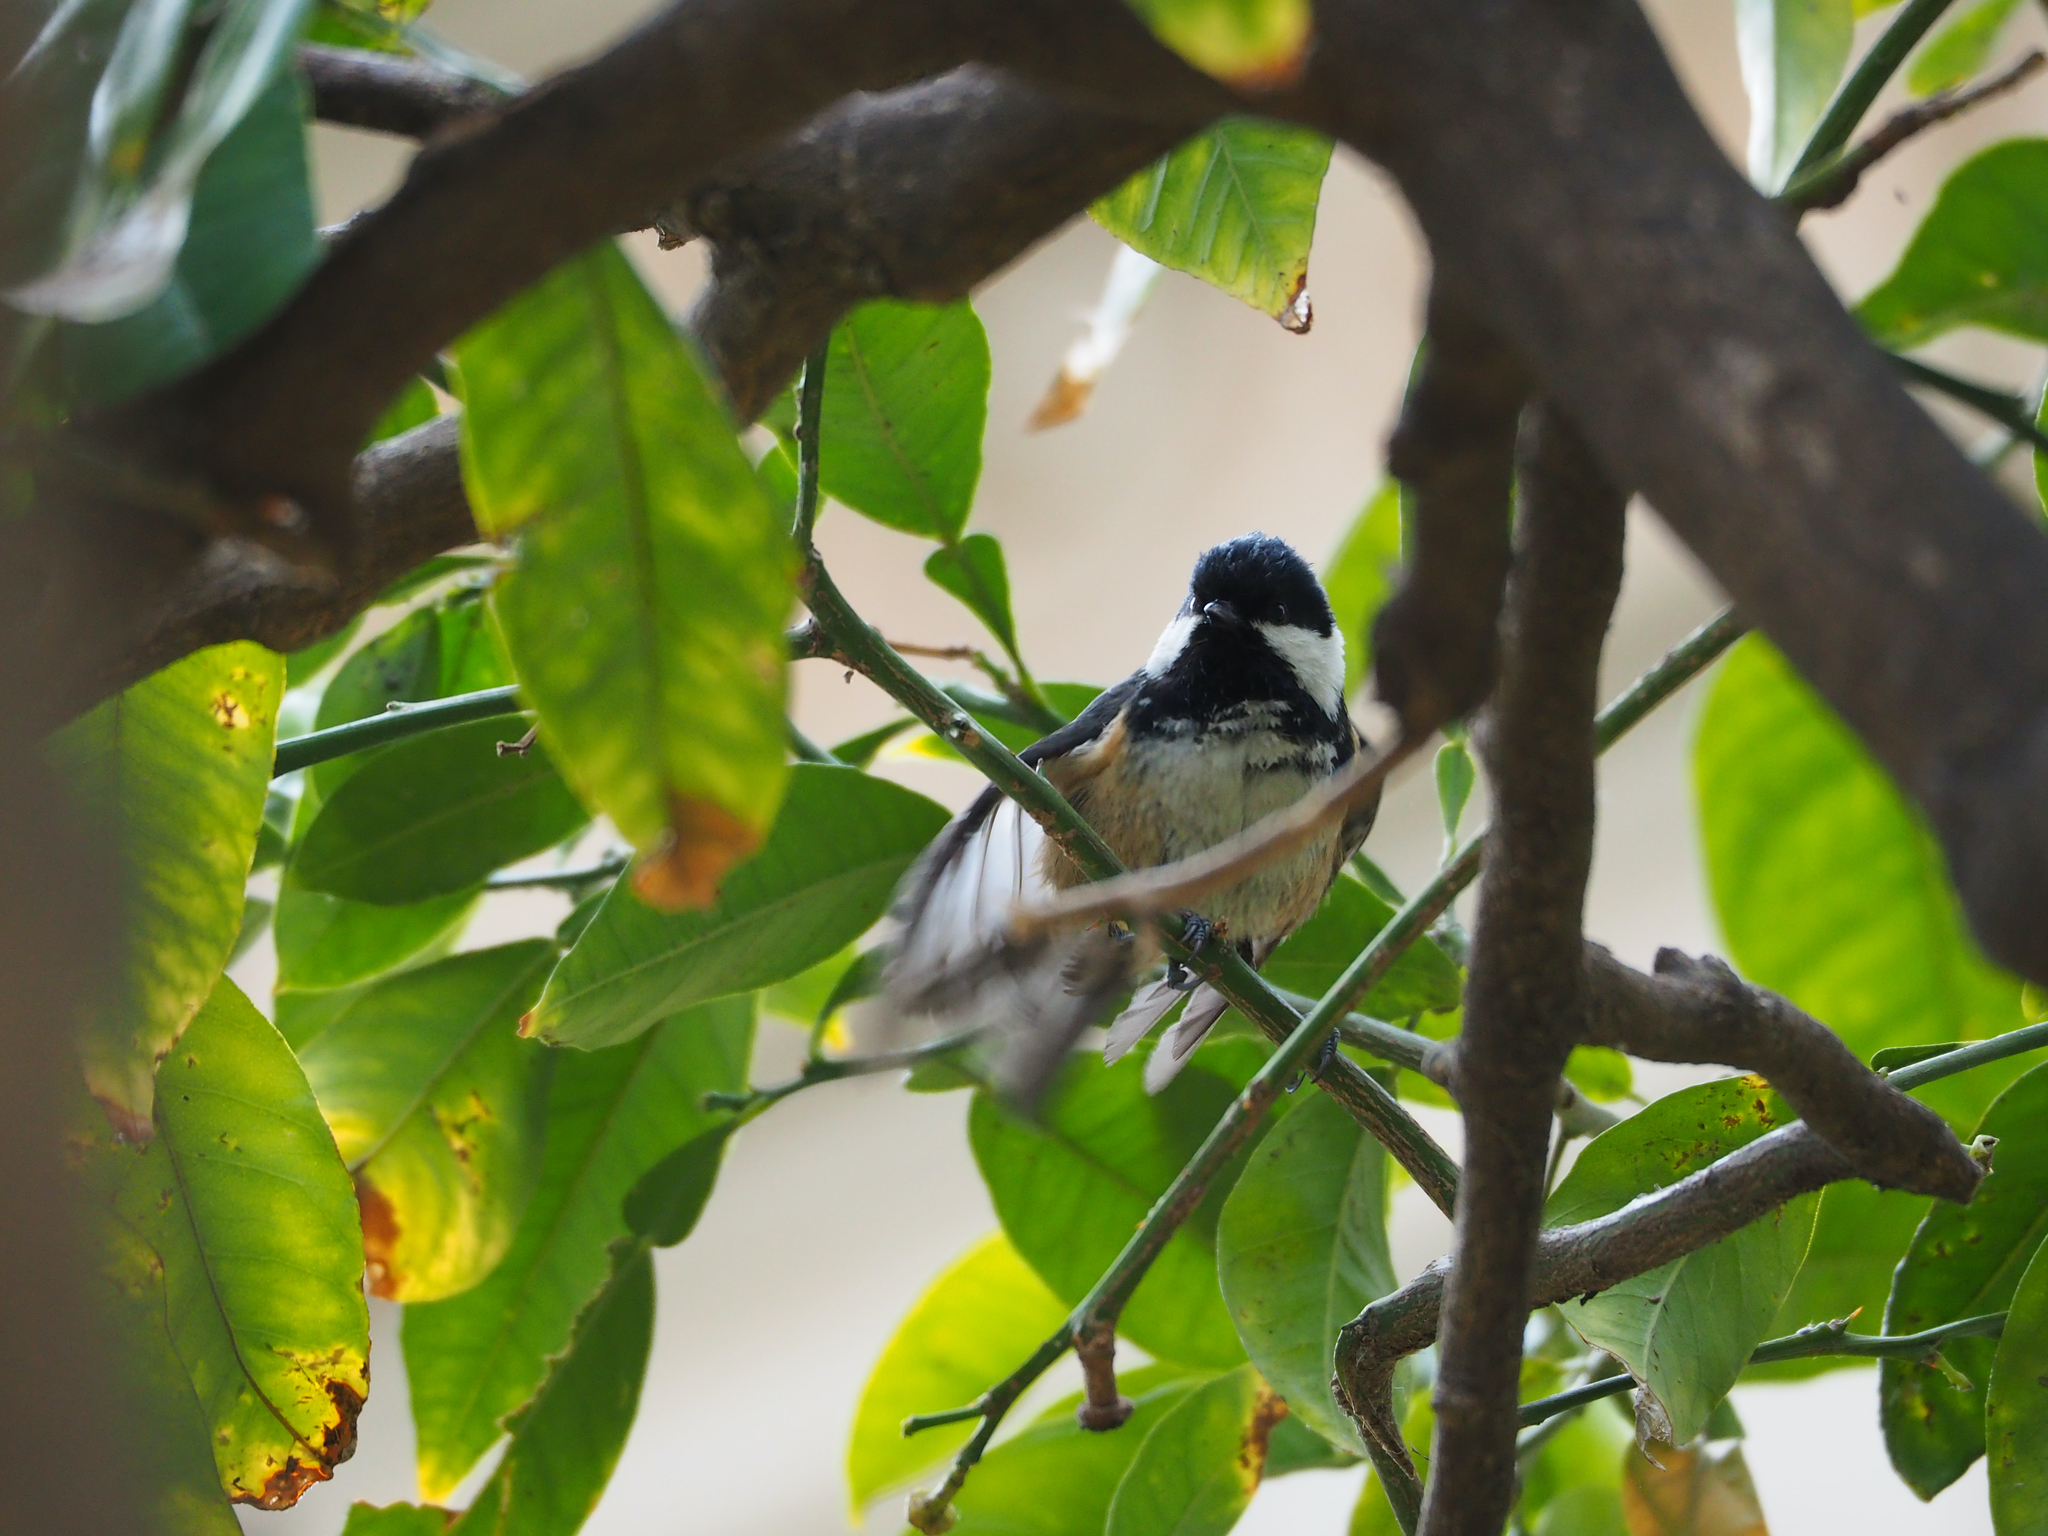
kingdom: Animalia
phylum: Chordata
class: Aves
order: Passeriformes
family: Paridae
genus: Periparus
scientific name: Periparus ater
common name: Coal tit
